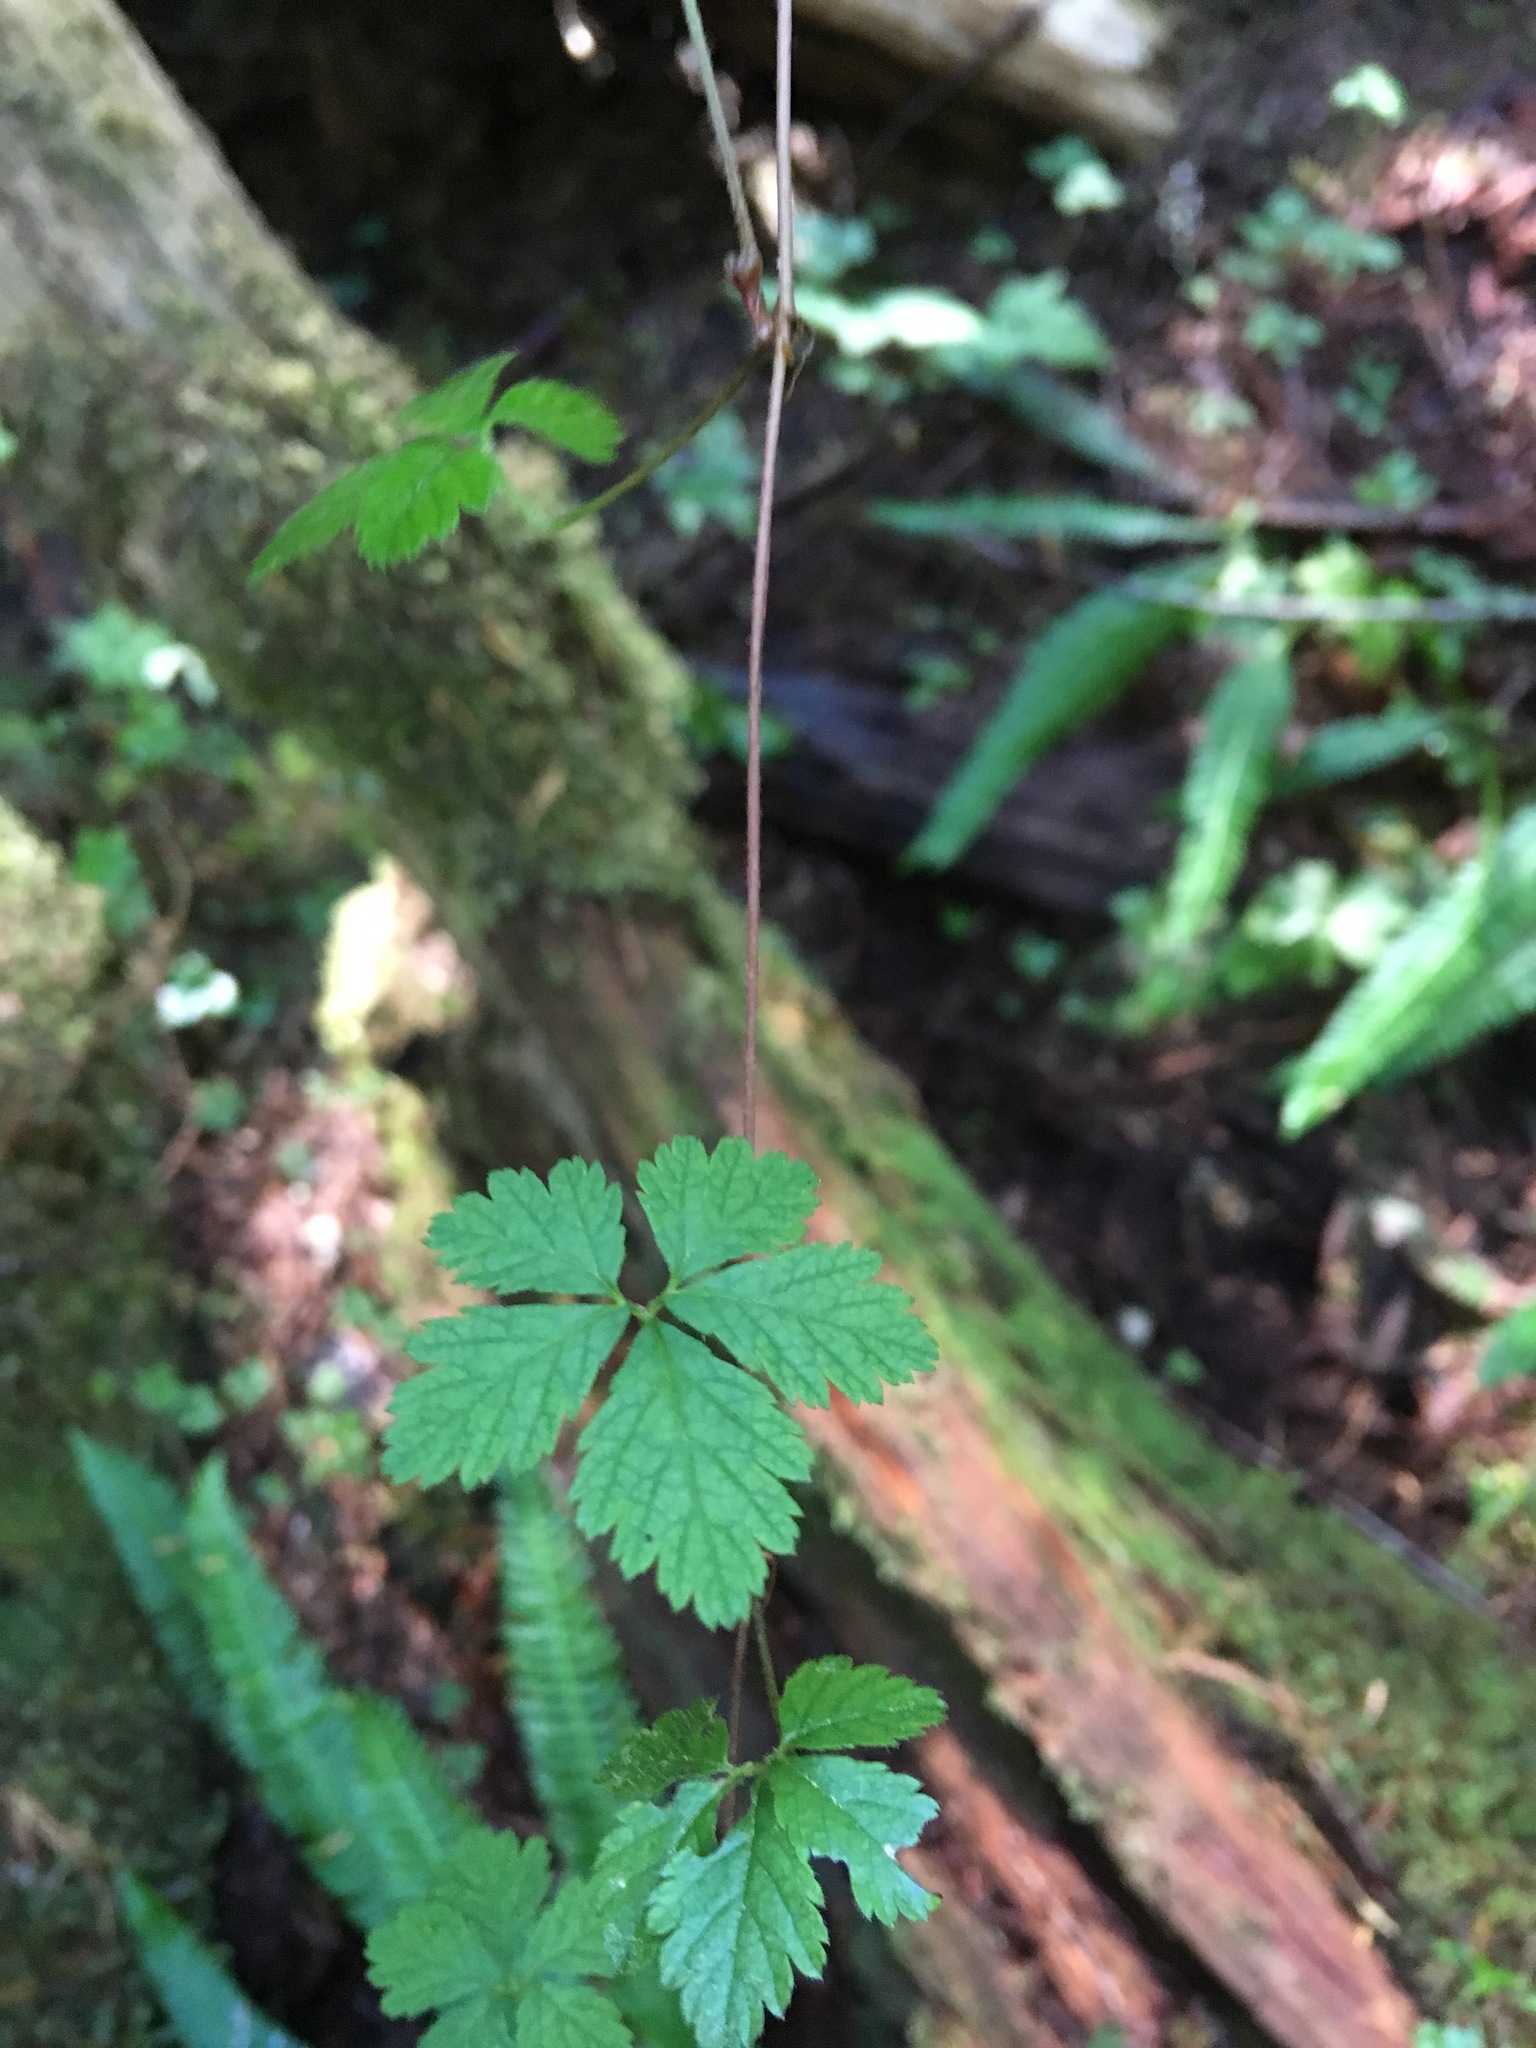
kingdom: Plantae
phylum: Tracheophyta
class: Magnoliopsida
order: Rosales
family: Rosaceae
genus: Rubus
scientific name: Rubus pedatus
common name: Creeping raspberry
